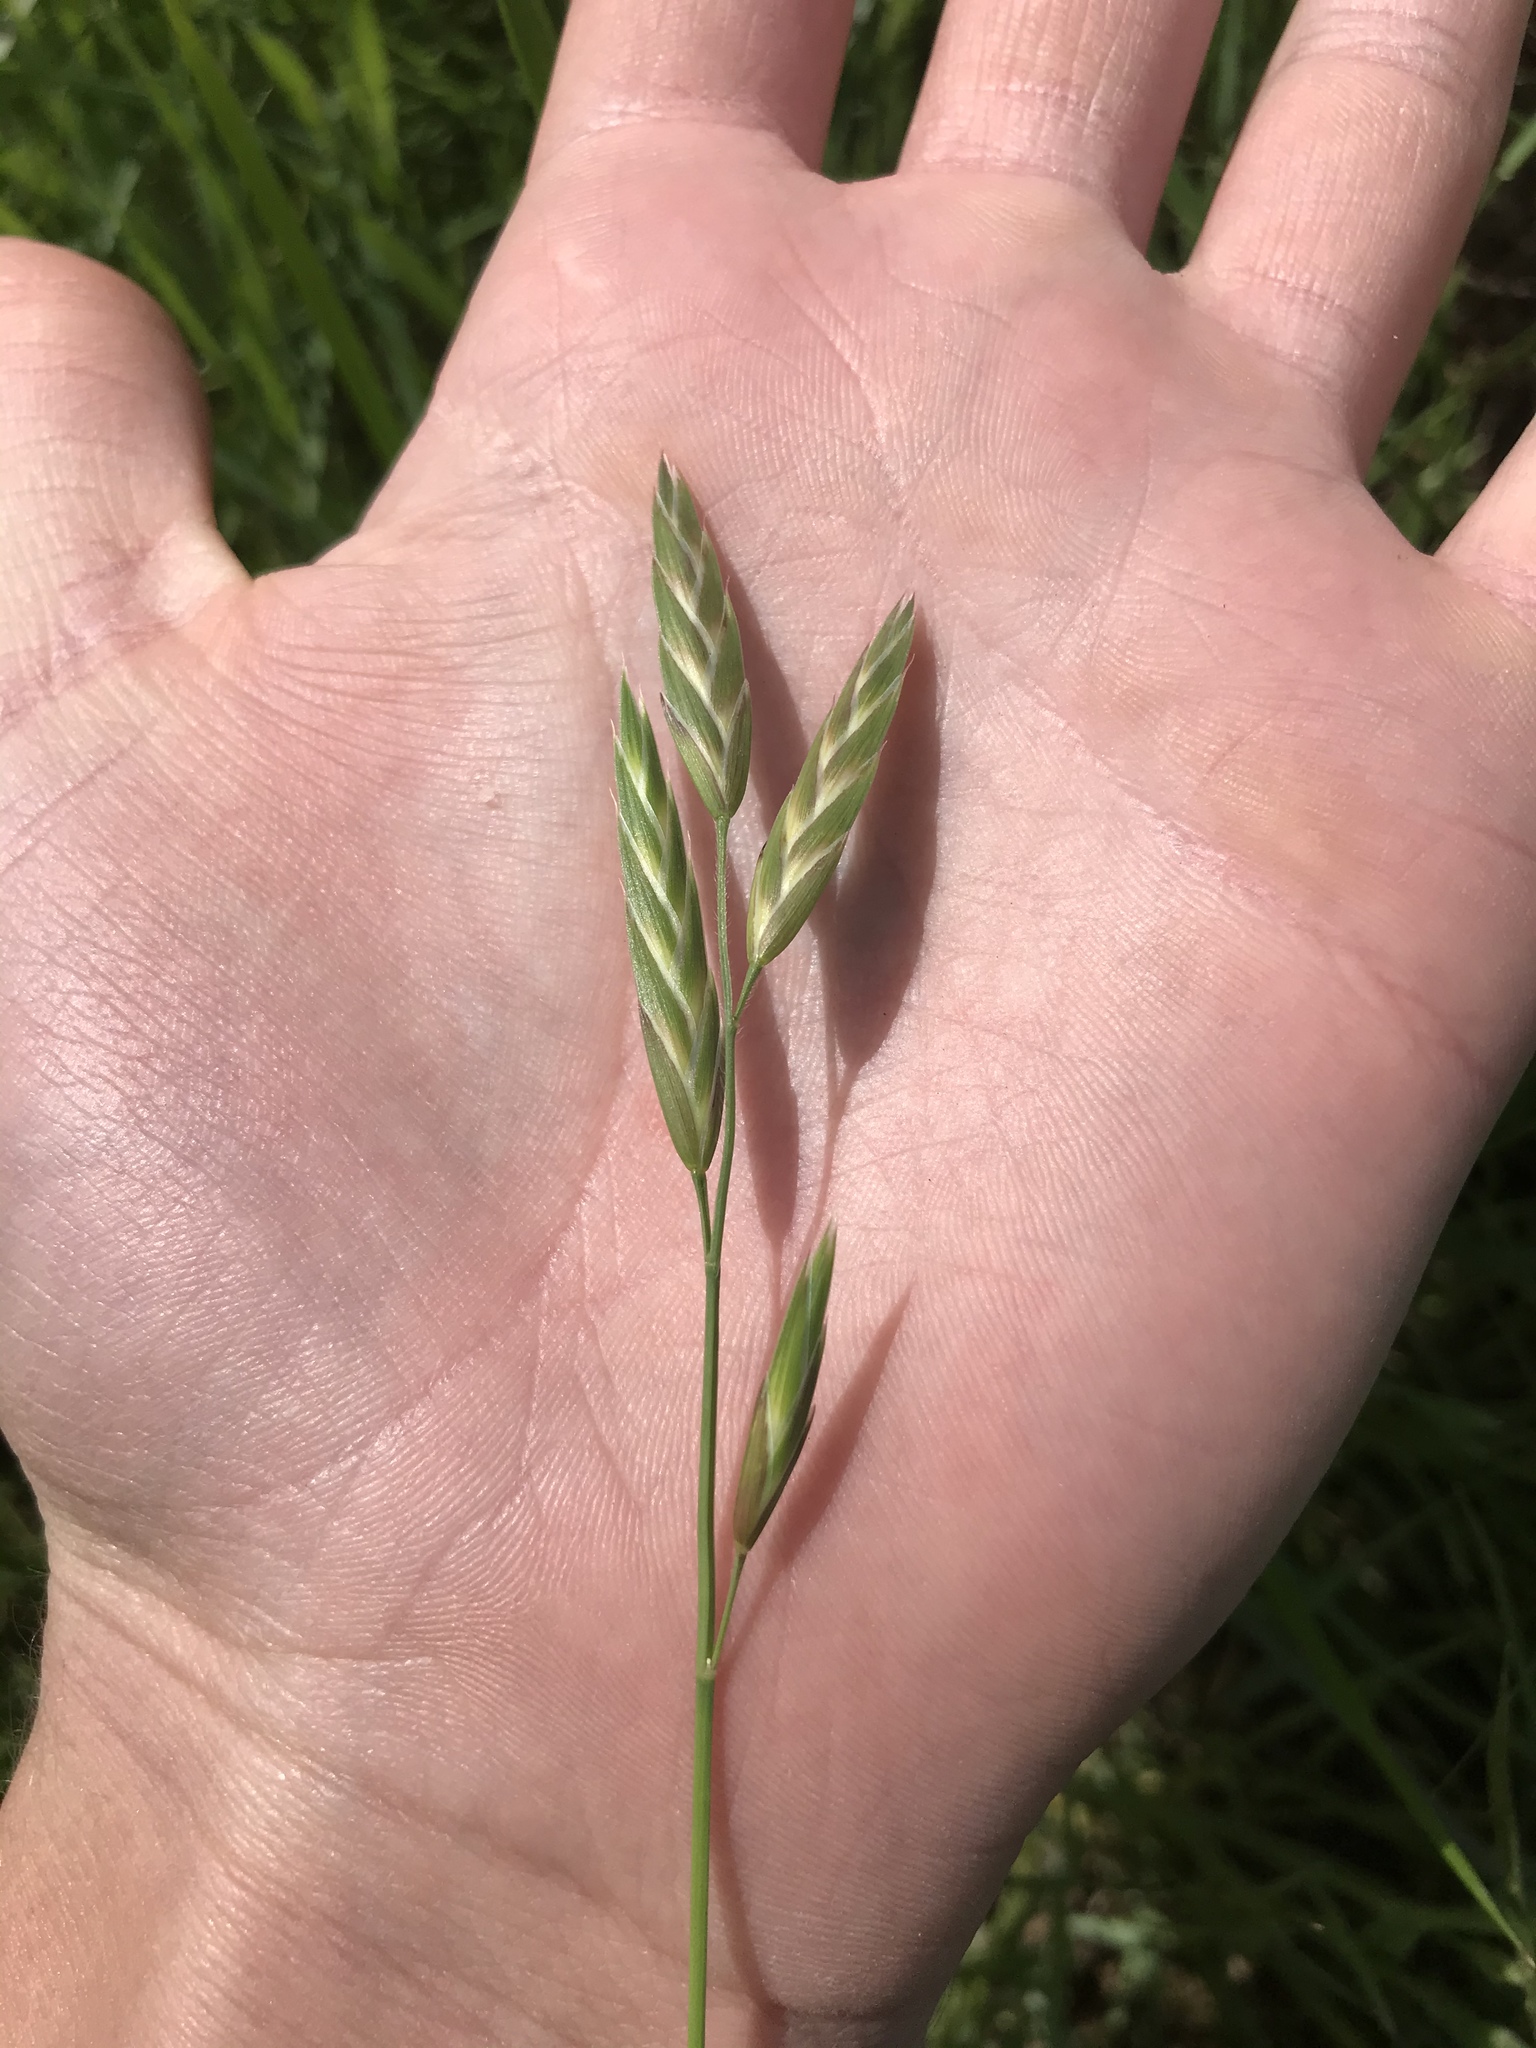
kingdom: Plantae
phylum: Tracheophyta
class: Liliopsida
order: Poales
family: Poaceae
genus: Bromus
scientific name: Bromus catharticus
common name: Rescuegrass
